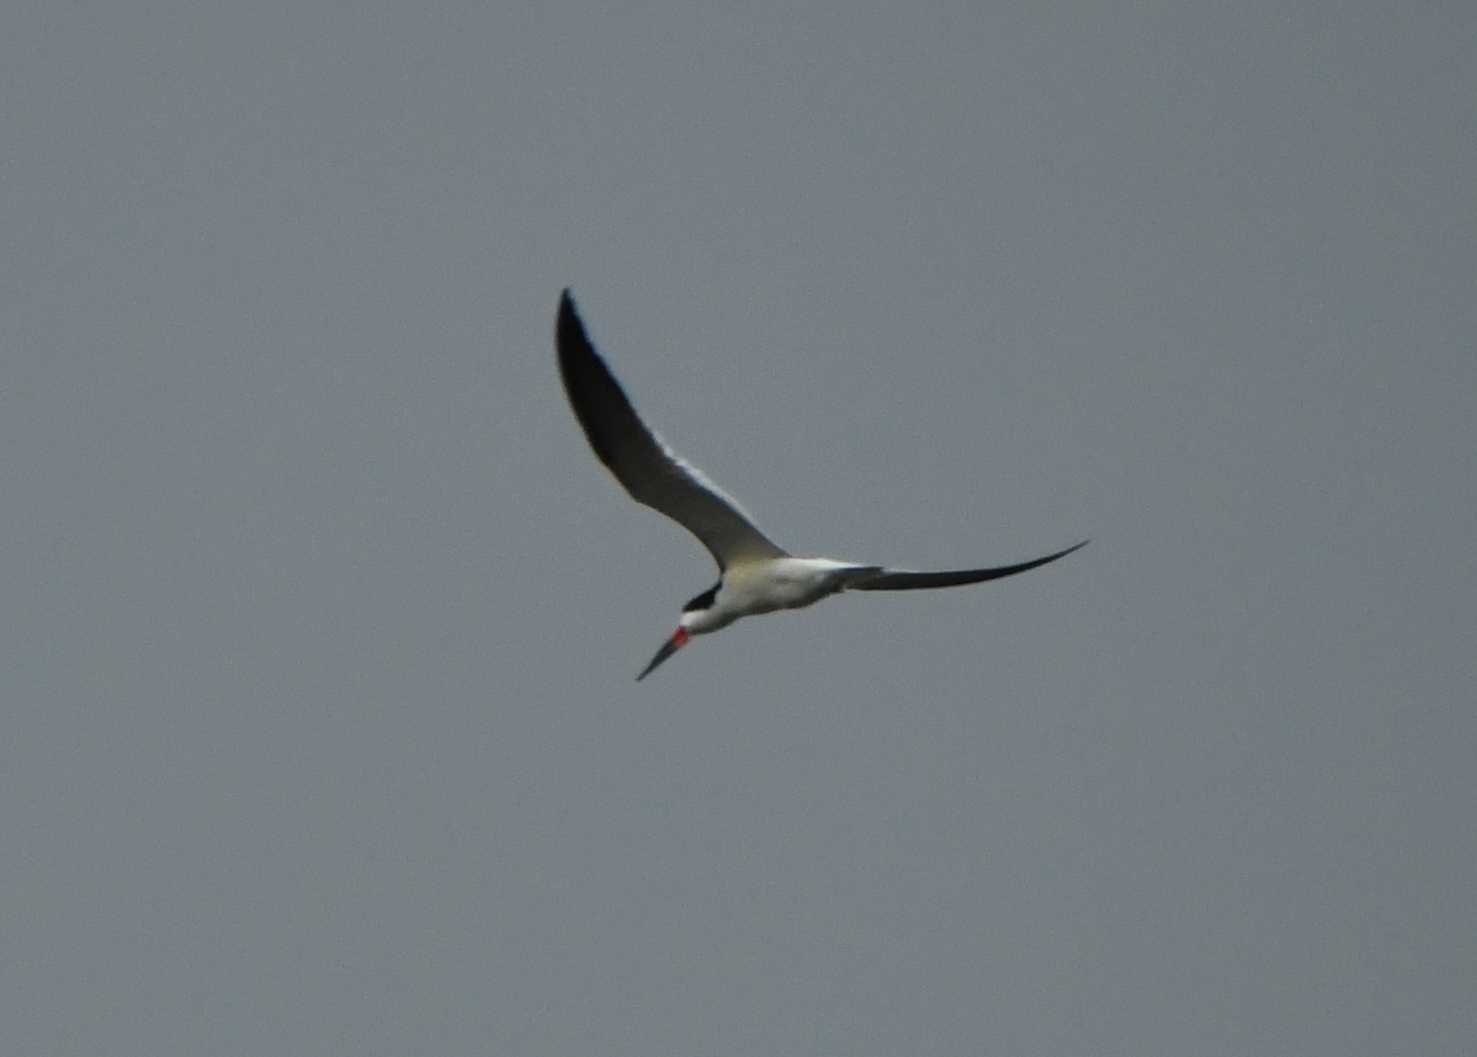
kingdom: Animalia
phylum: Chordata
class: Aves
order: Charadriiformes
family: Laridae
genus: Rynchops
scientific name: Rynchops niger
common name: Black skimmer
